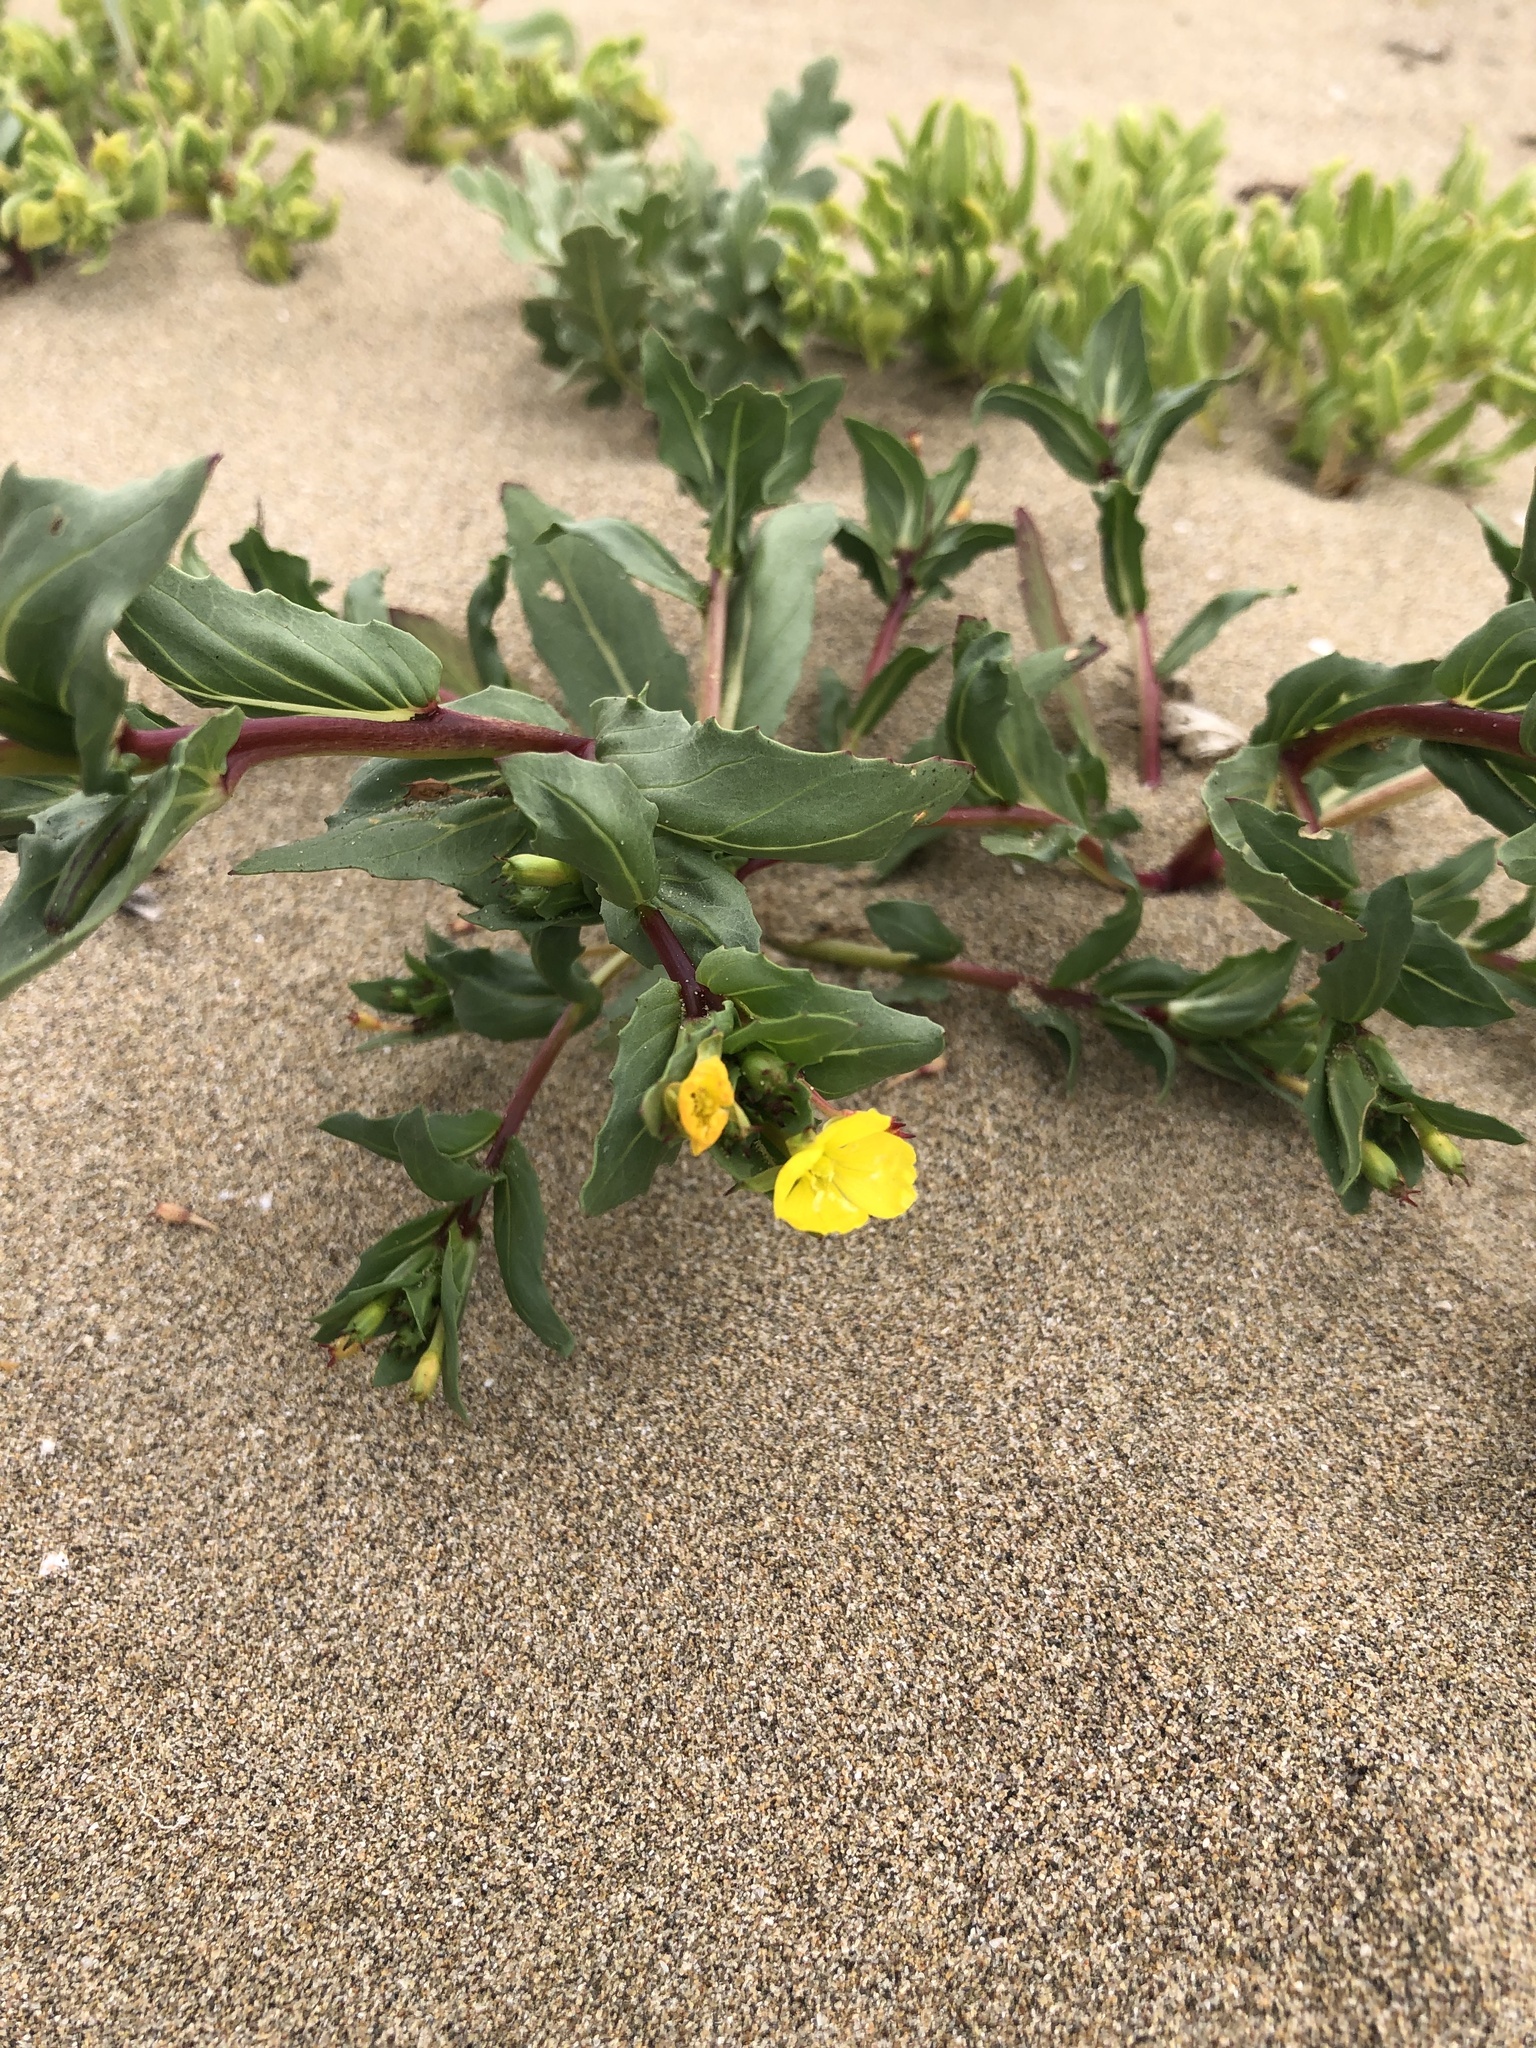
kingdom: Plantae
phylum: Tracheophyta
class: Magnoliopsida
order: Myrtales
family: Onagraceae
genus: Oenothera
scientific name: Oenothera coquimbensis
